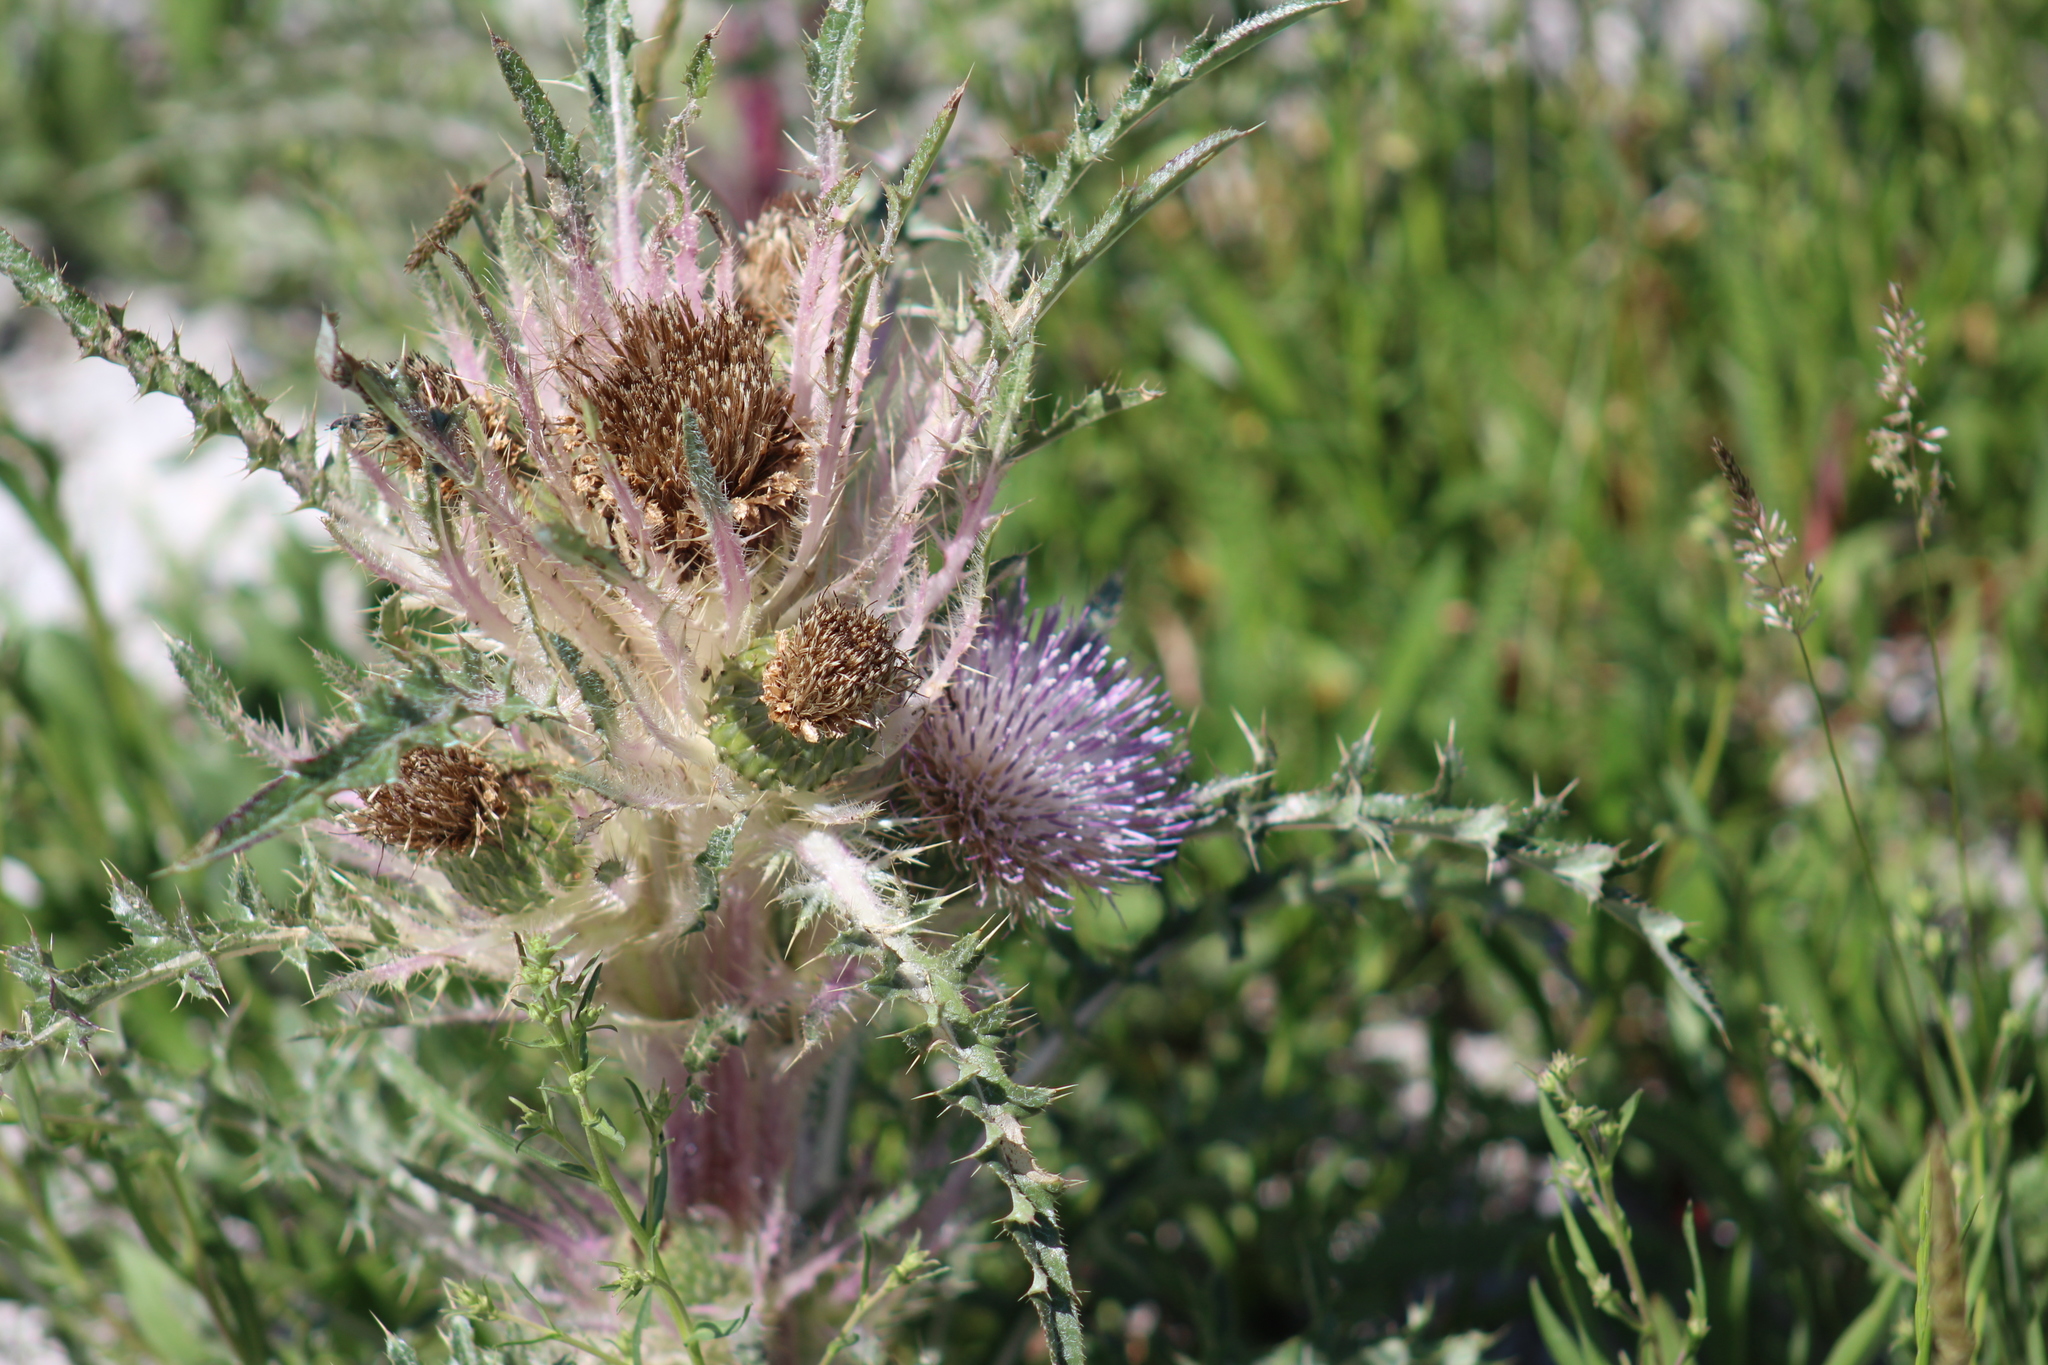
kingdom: Plantae
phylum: Tracheophyta
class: Magnoliopsida
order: Asterales
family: Asteraceae
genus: Cirsium
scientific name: Cirsium scariosum
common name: Meadow thistle
